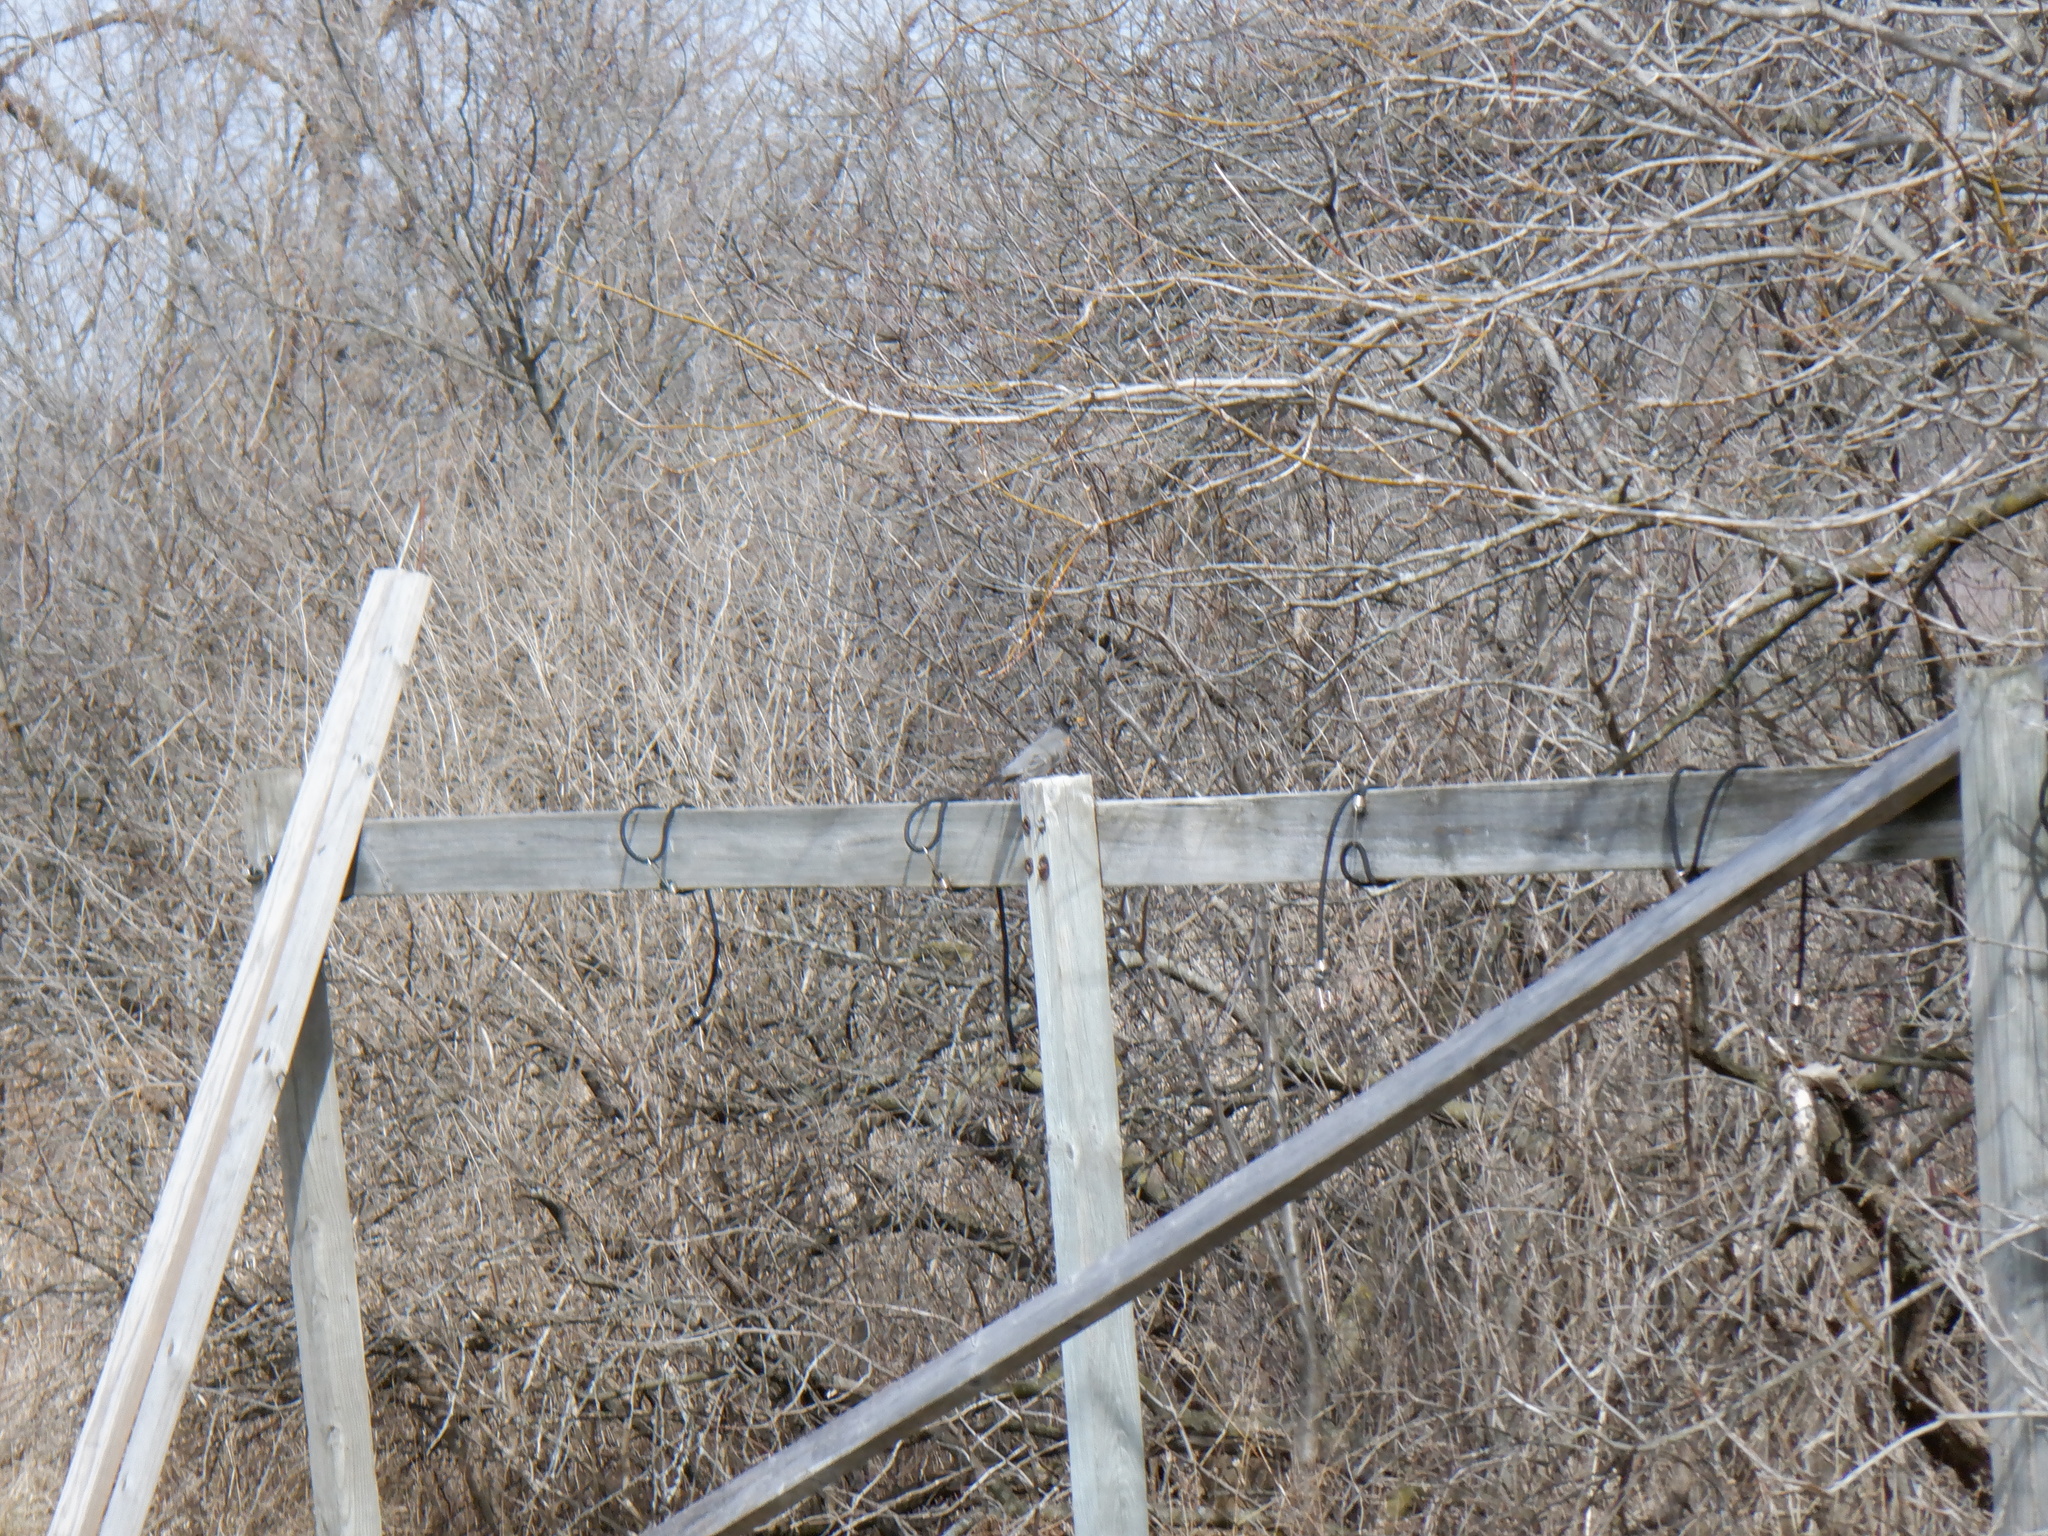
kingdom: Animalia
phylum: Chordata
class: Aves
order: Passeriformes
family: Turdidae
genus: Turdus
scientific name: Turdus migratorius
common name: American robin
